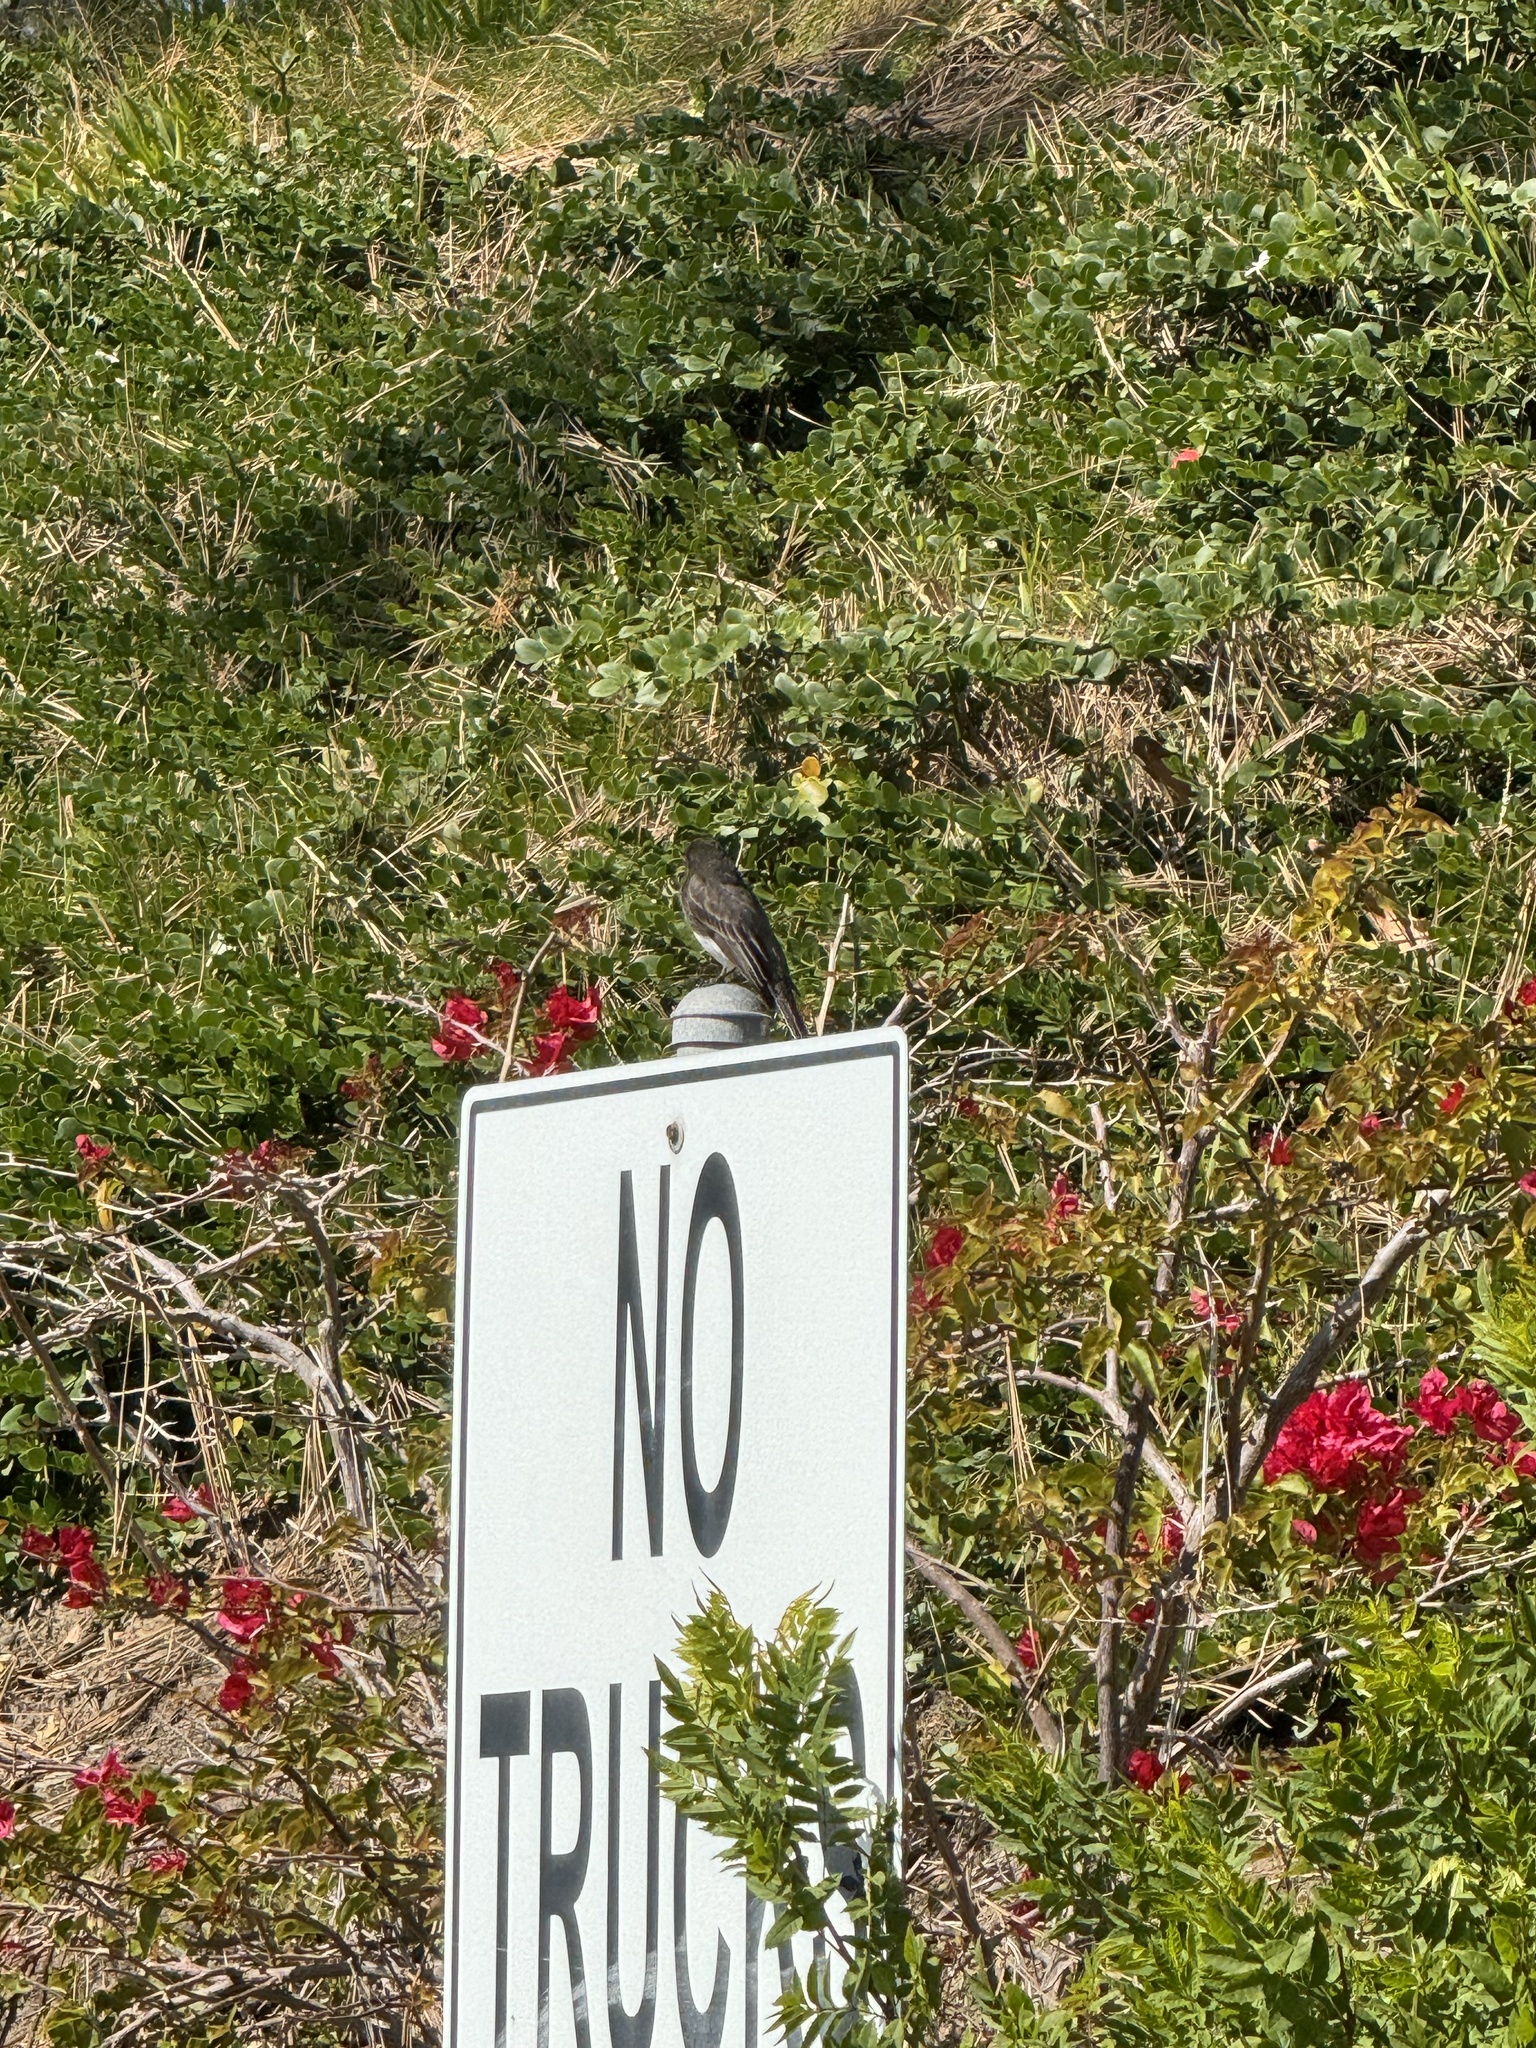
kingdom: Animalia
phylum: Chordata
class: Aves
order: Passeriformes
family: Tyrannidae
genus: Sayornis
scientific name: Sayornis nigricans
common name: Black phoebe
